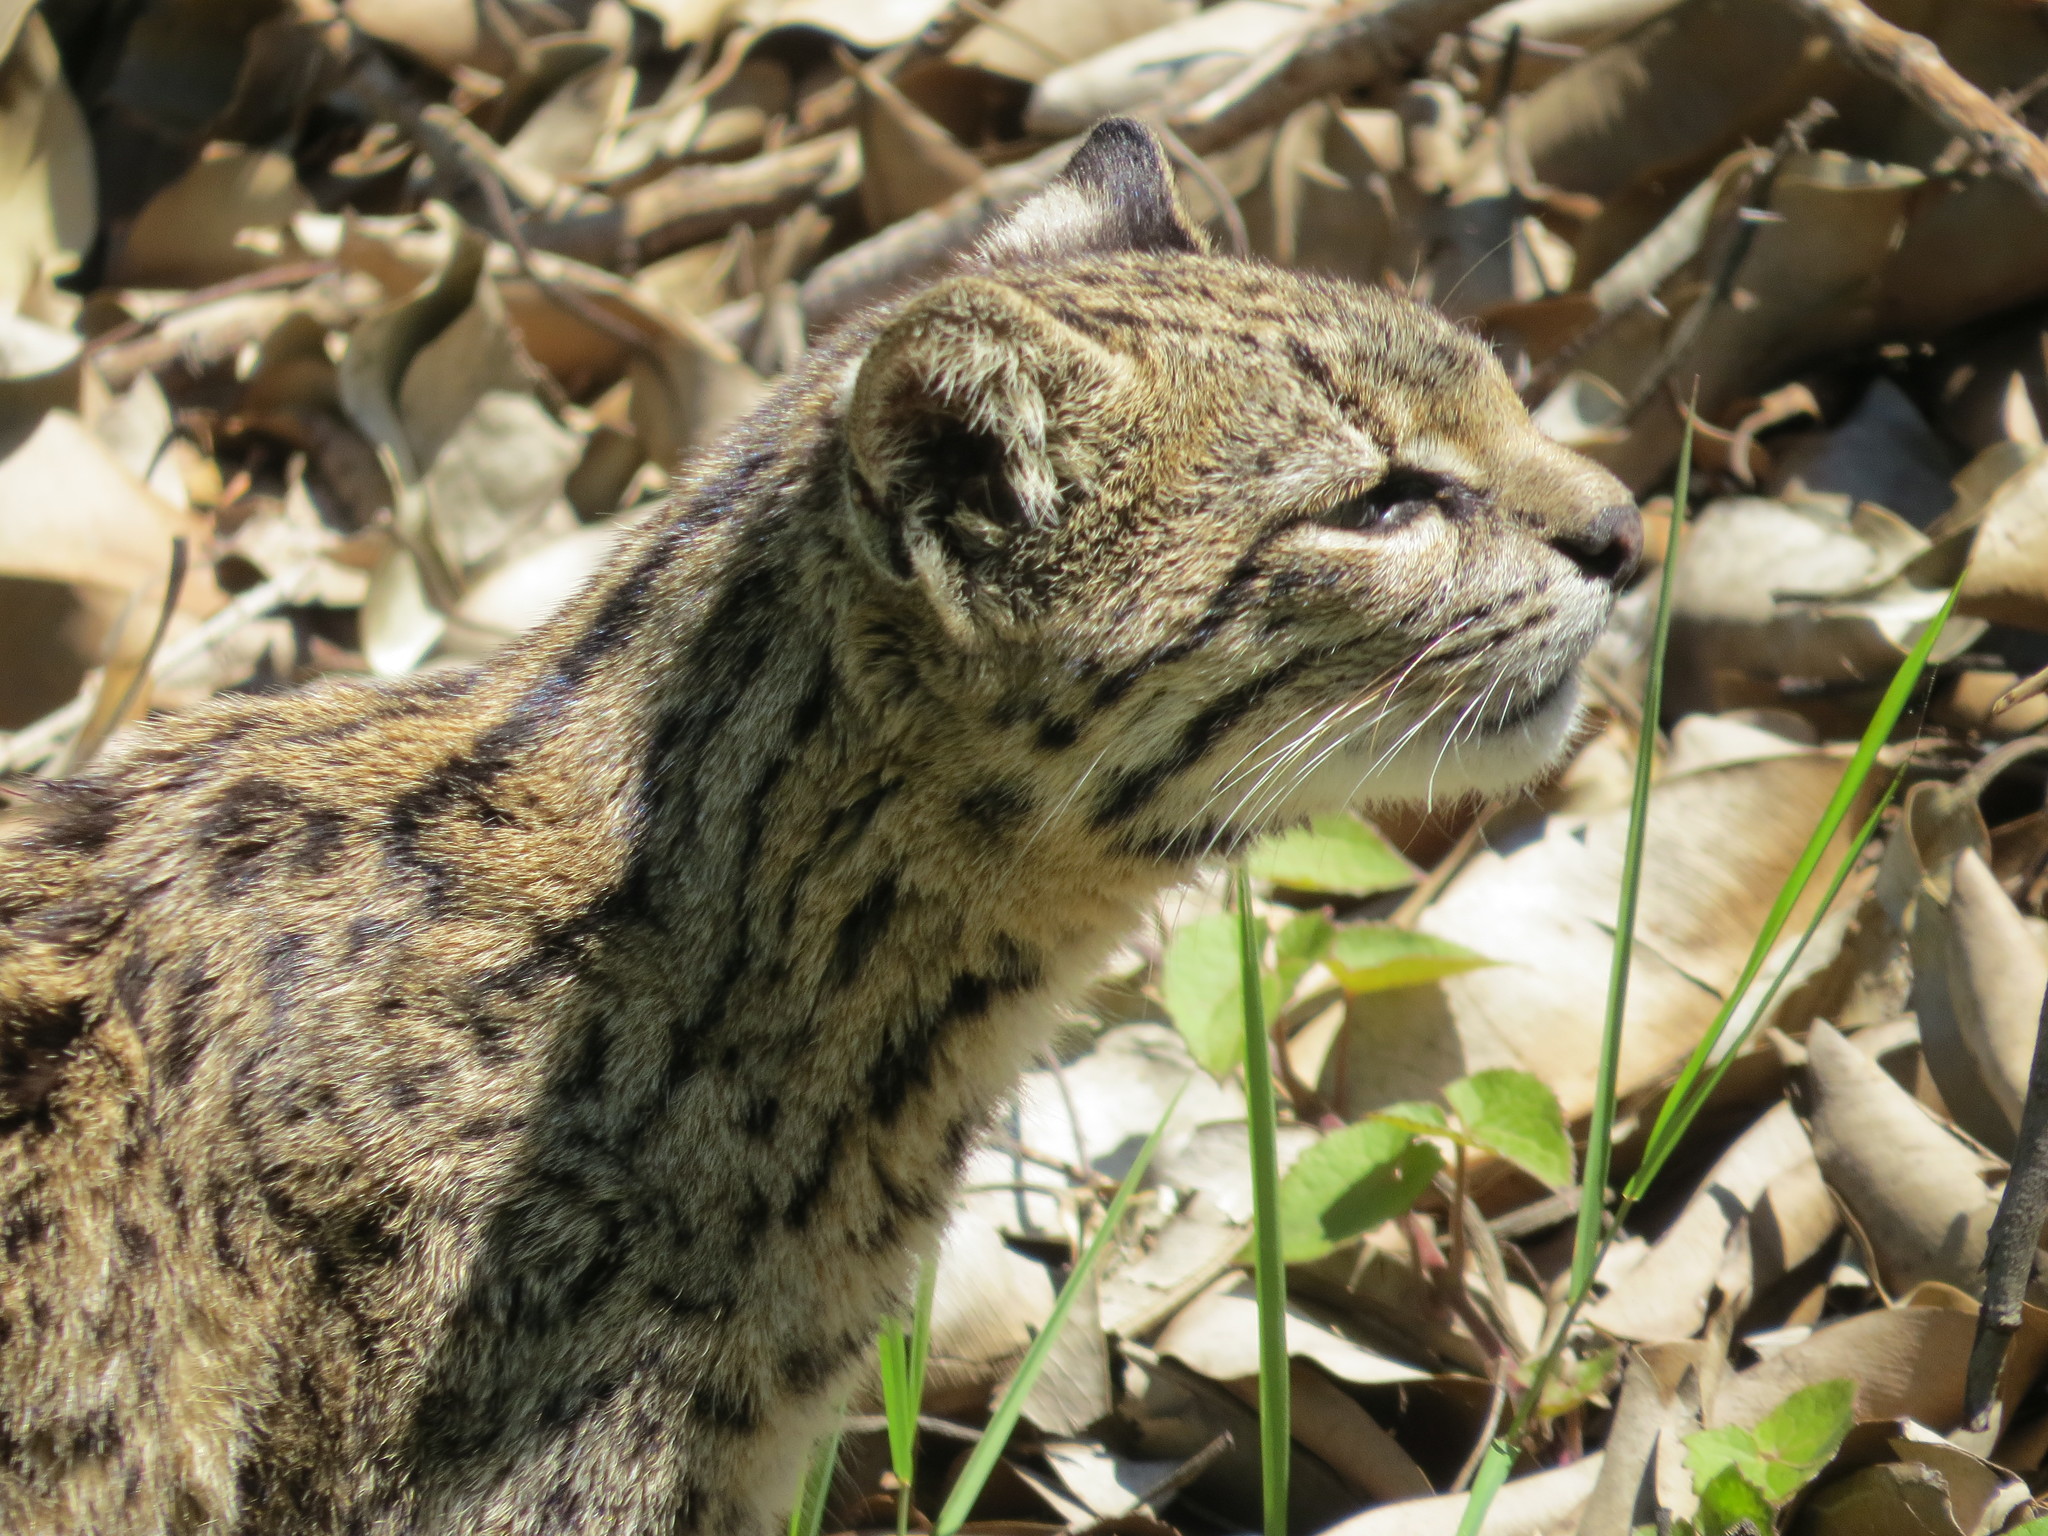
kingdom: Animalia
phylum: Chordata
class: Mammalia
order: Carnivora
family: Felidae
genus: Leopardus
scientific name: Leopardus geoffroyi
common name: Geoffroy's cat
